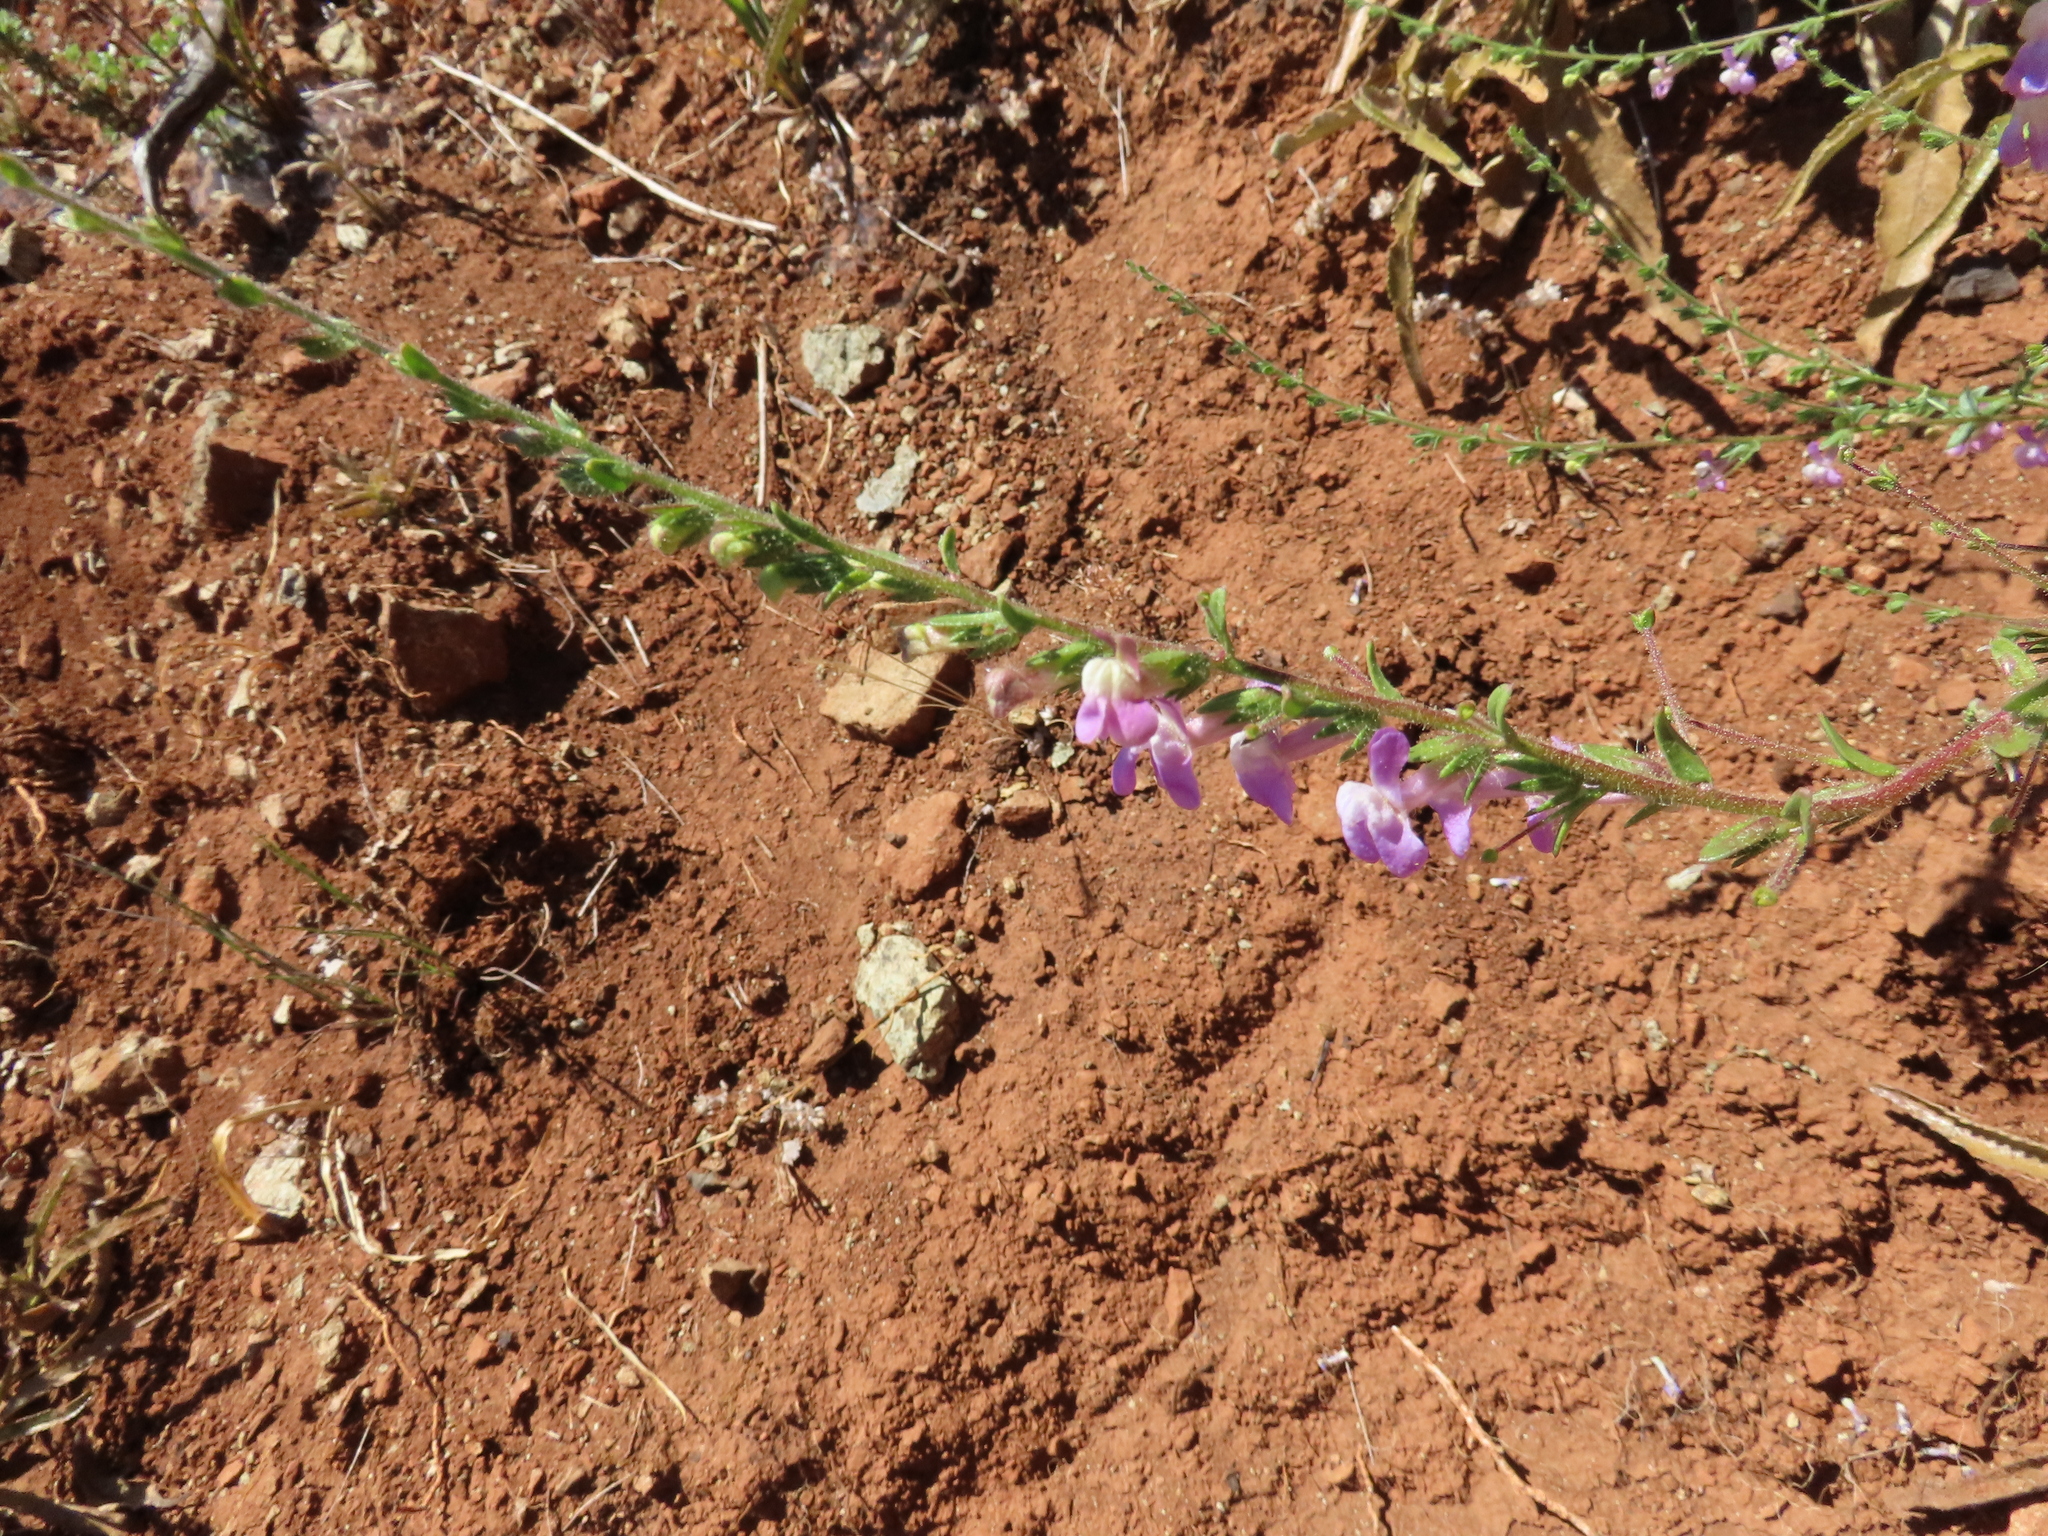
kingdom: Plantae
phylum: Tracheophyta
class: Magnoliopsida
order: Lamiales
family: Plantaginaceae
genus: Sairocarpus
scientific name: Sairocarpus vexillocalyculatus
